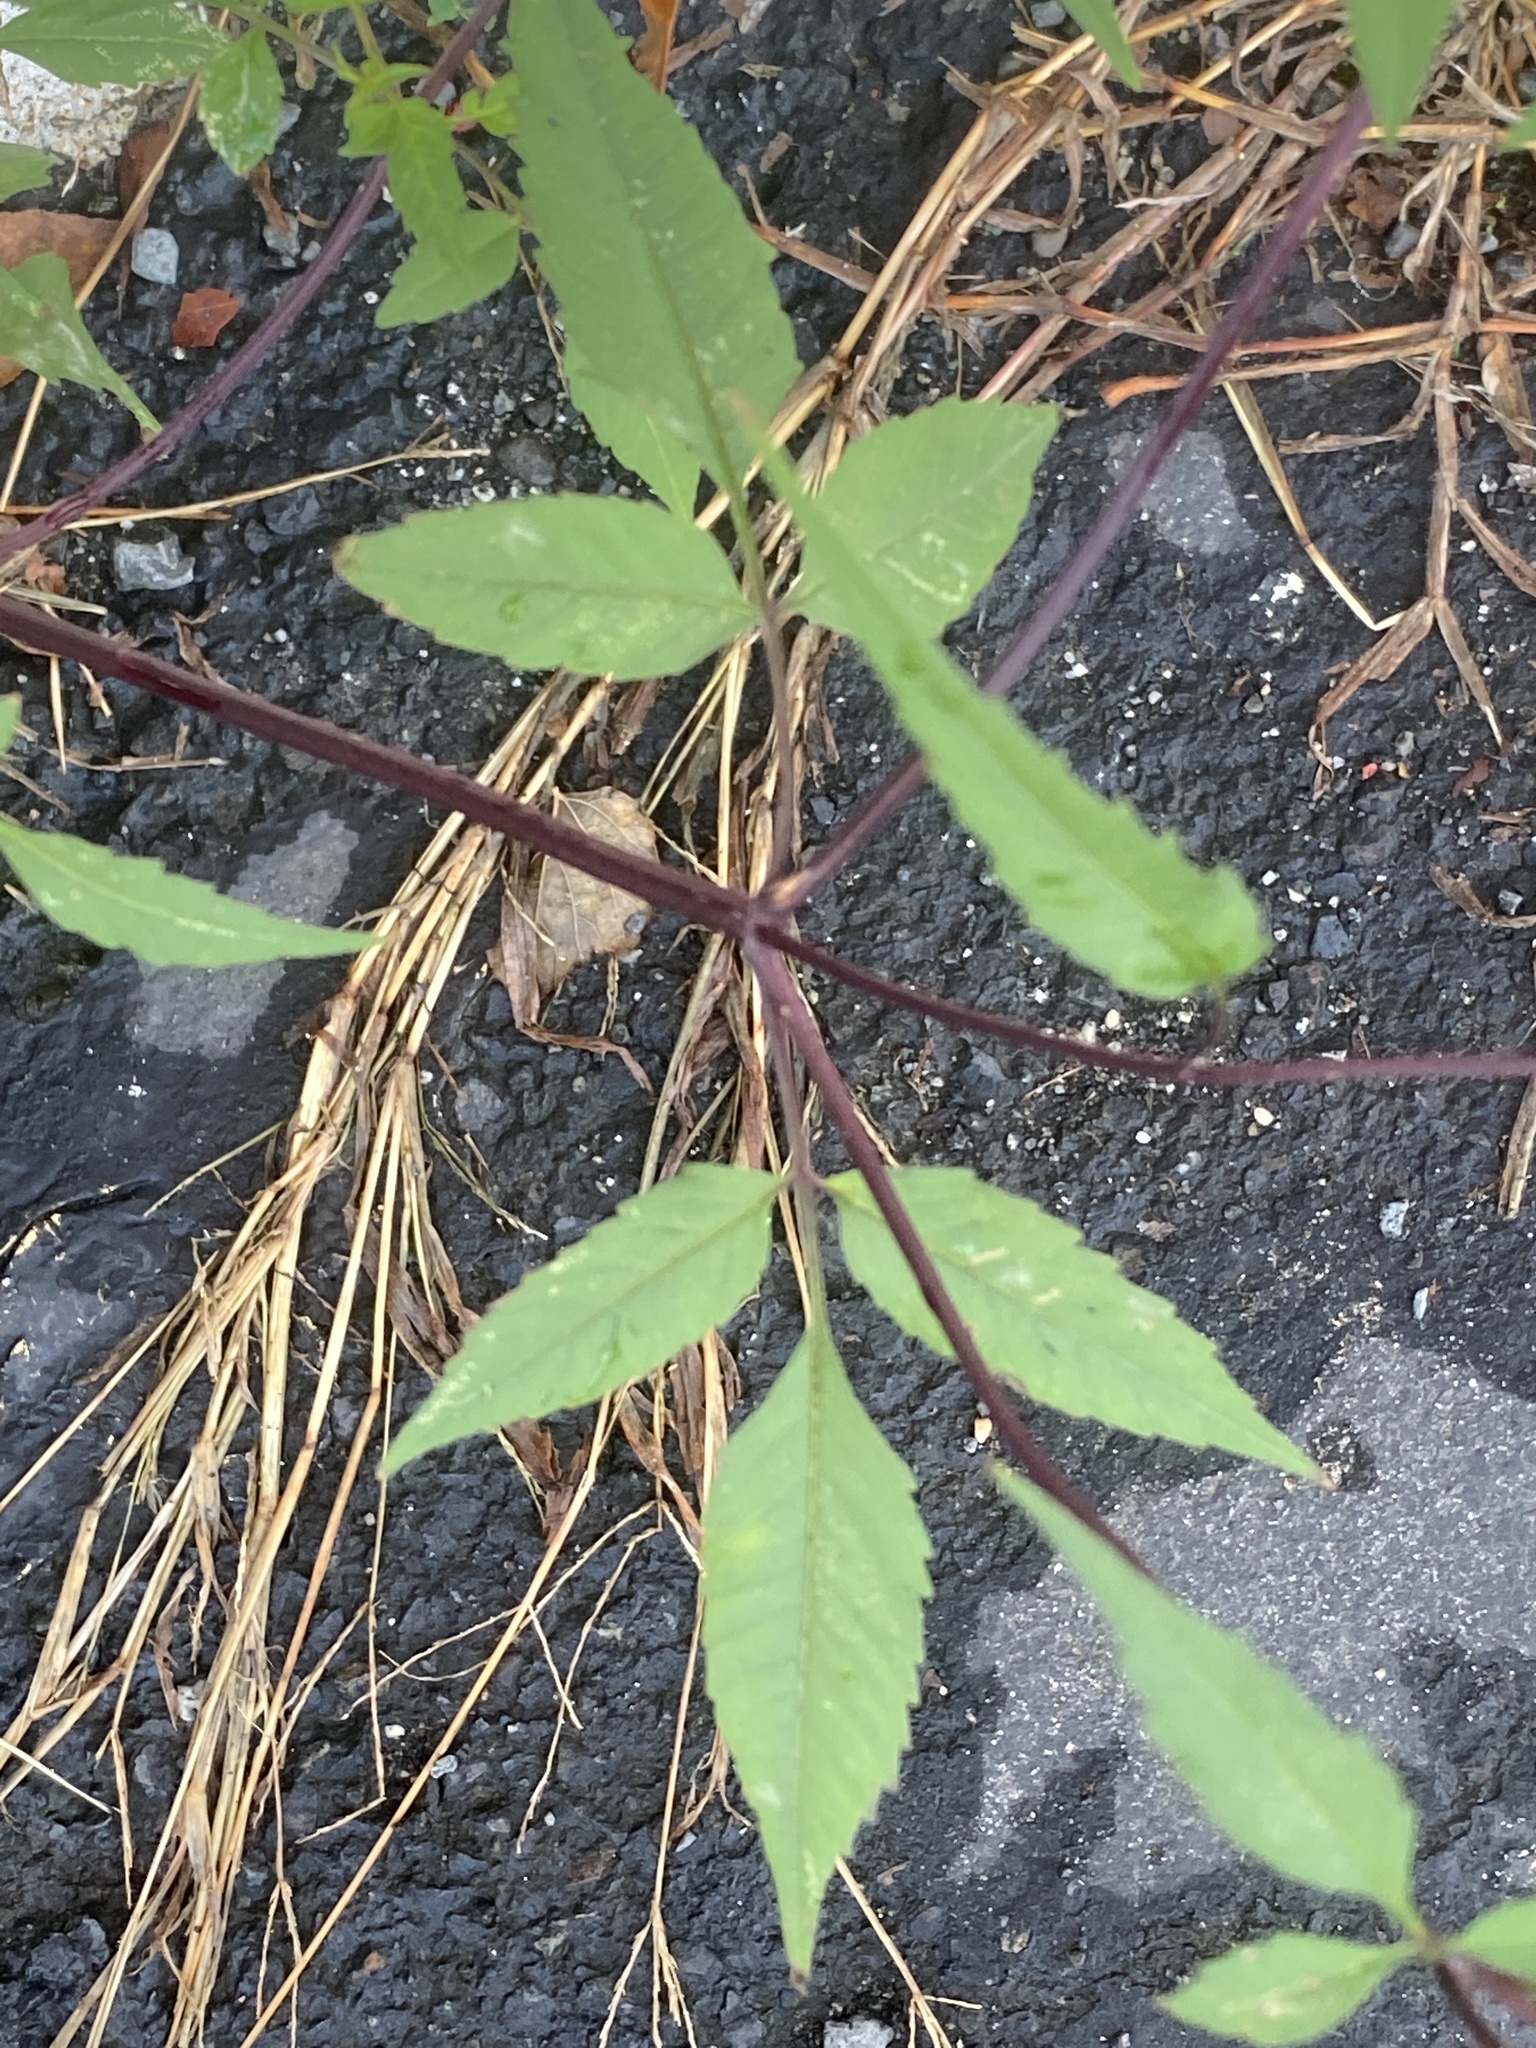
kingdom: Plantae
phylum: Tracheophyta
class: Magnoliopsida
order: Asterales
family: Asteraceae
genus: Bidens
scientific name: Bidens frondosa
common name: Beggarticks
